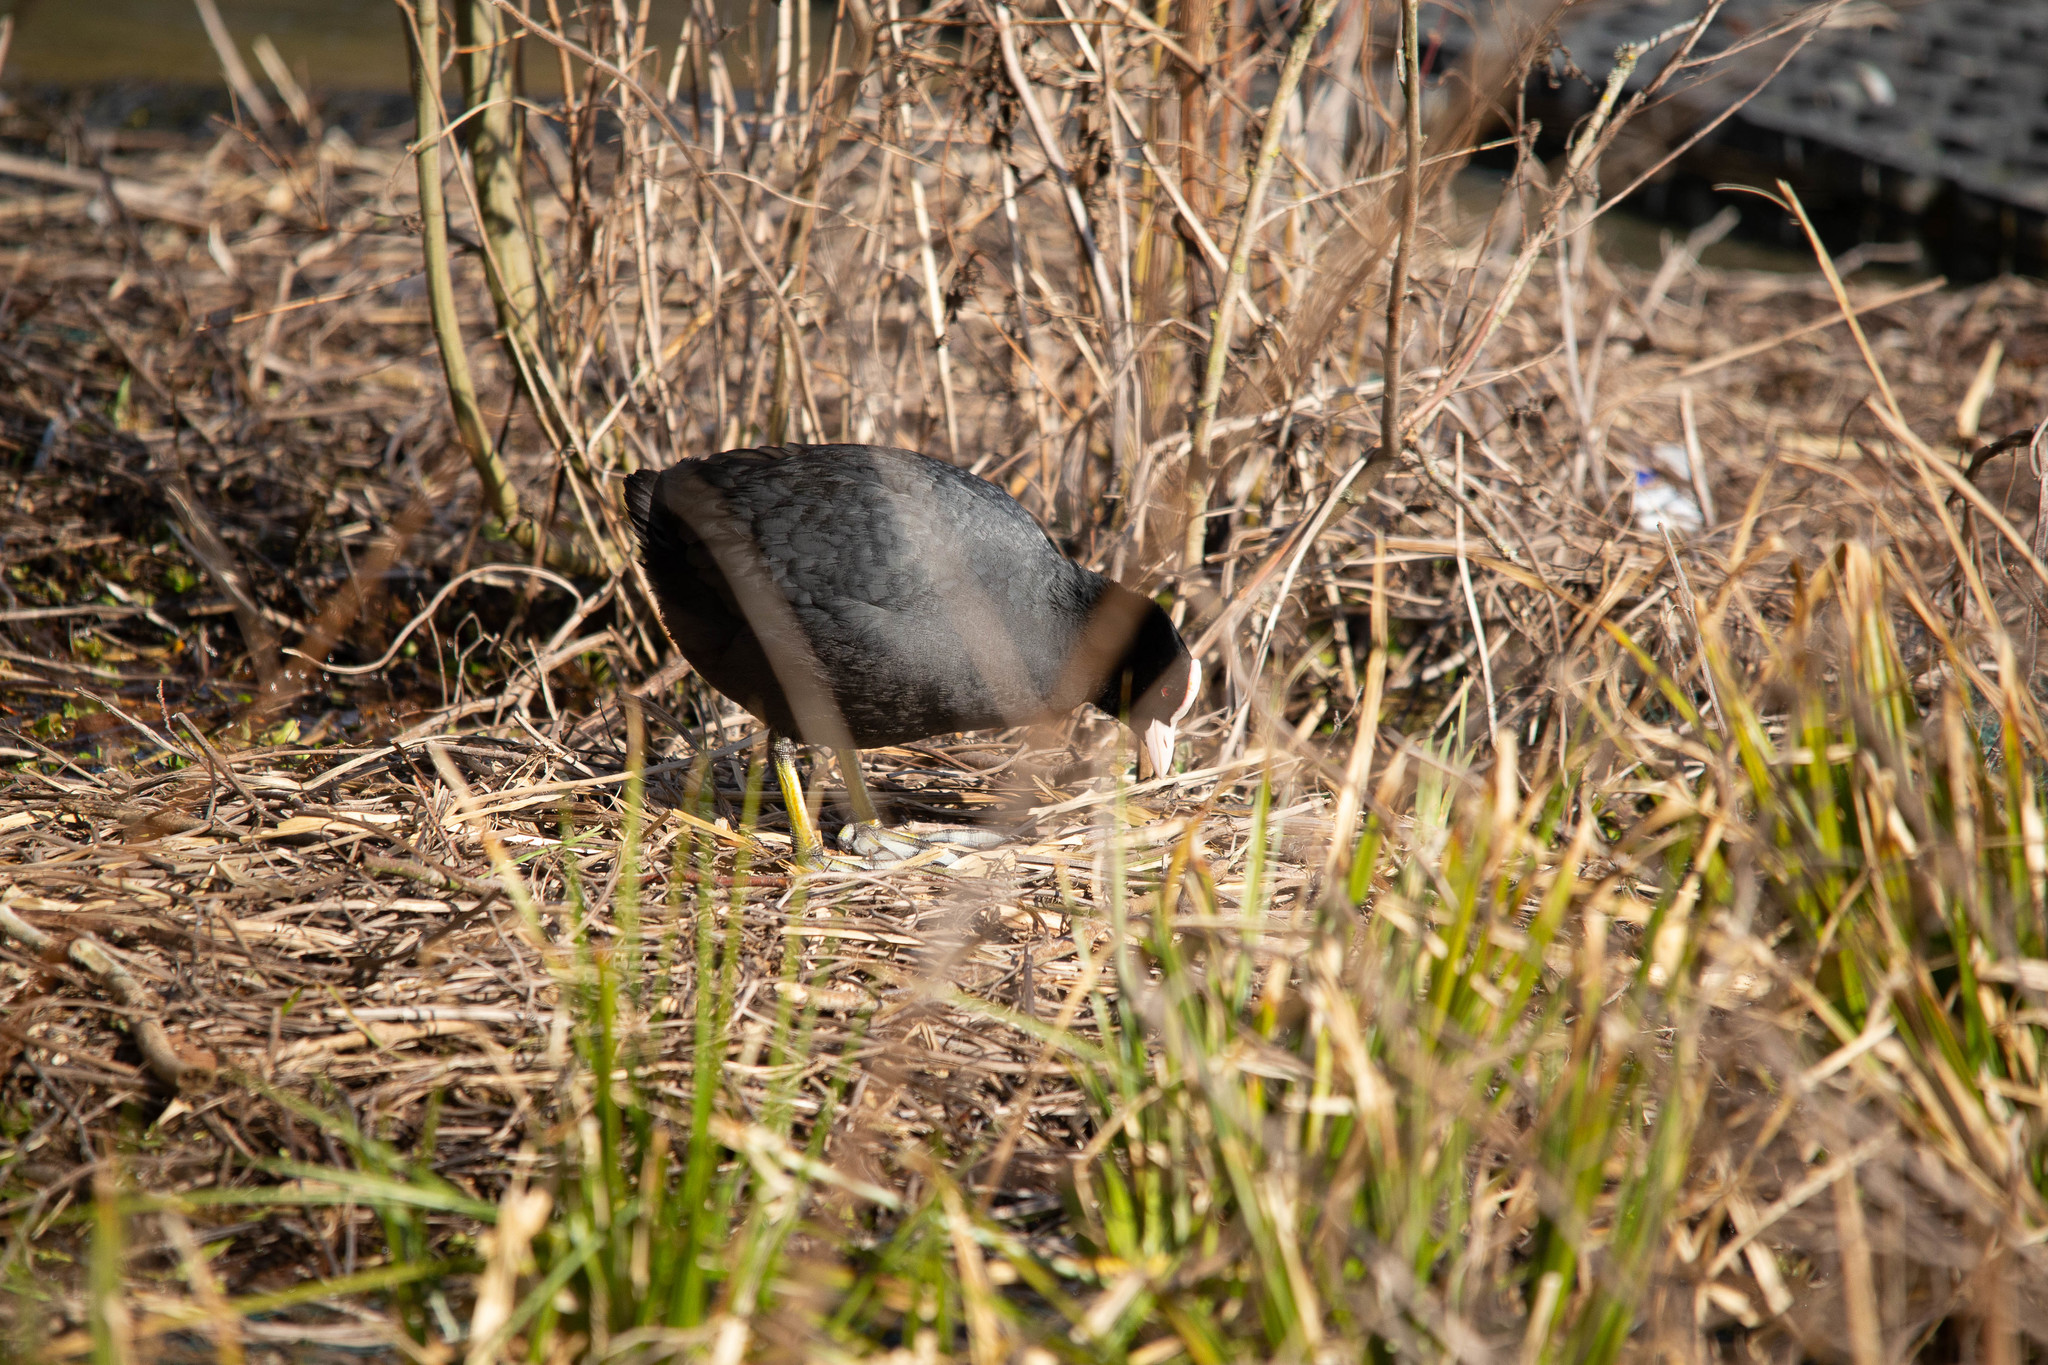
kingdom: Animalia
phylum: Chordata
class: Aves
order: Gruiformes
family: Rallidae
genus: Fulica
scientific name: Fulica atra
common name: Eurasian coot
